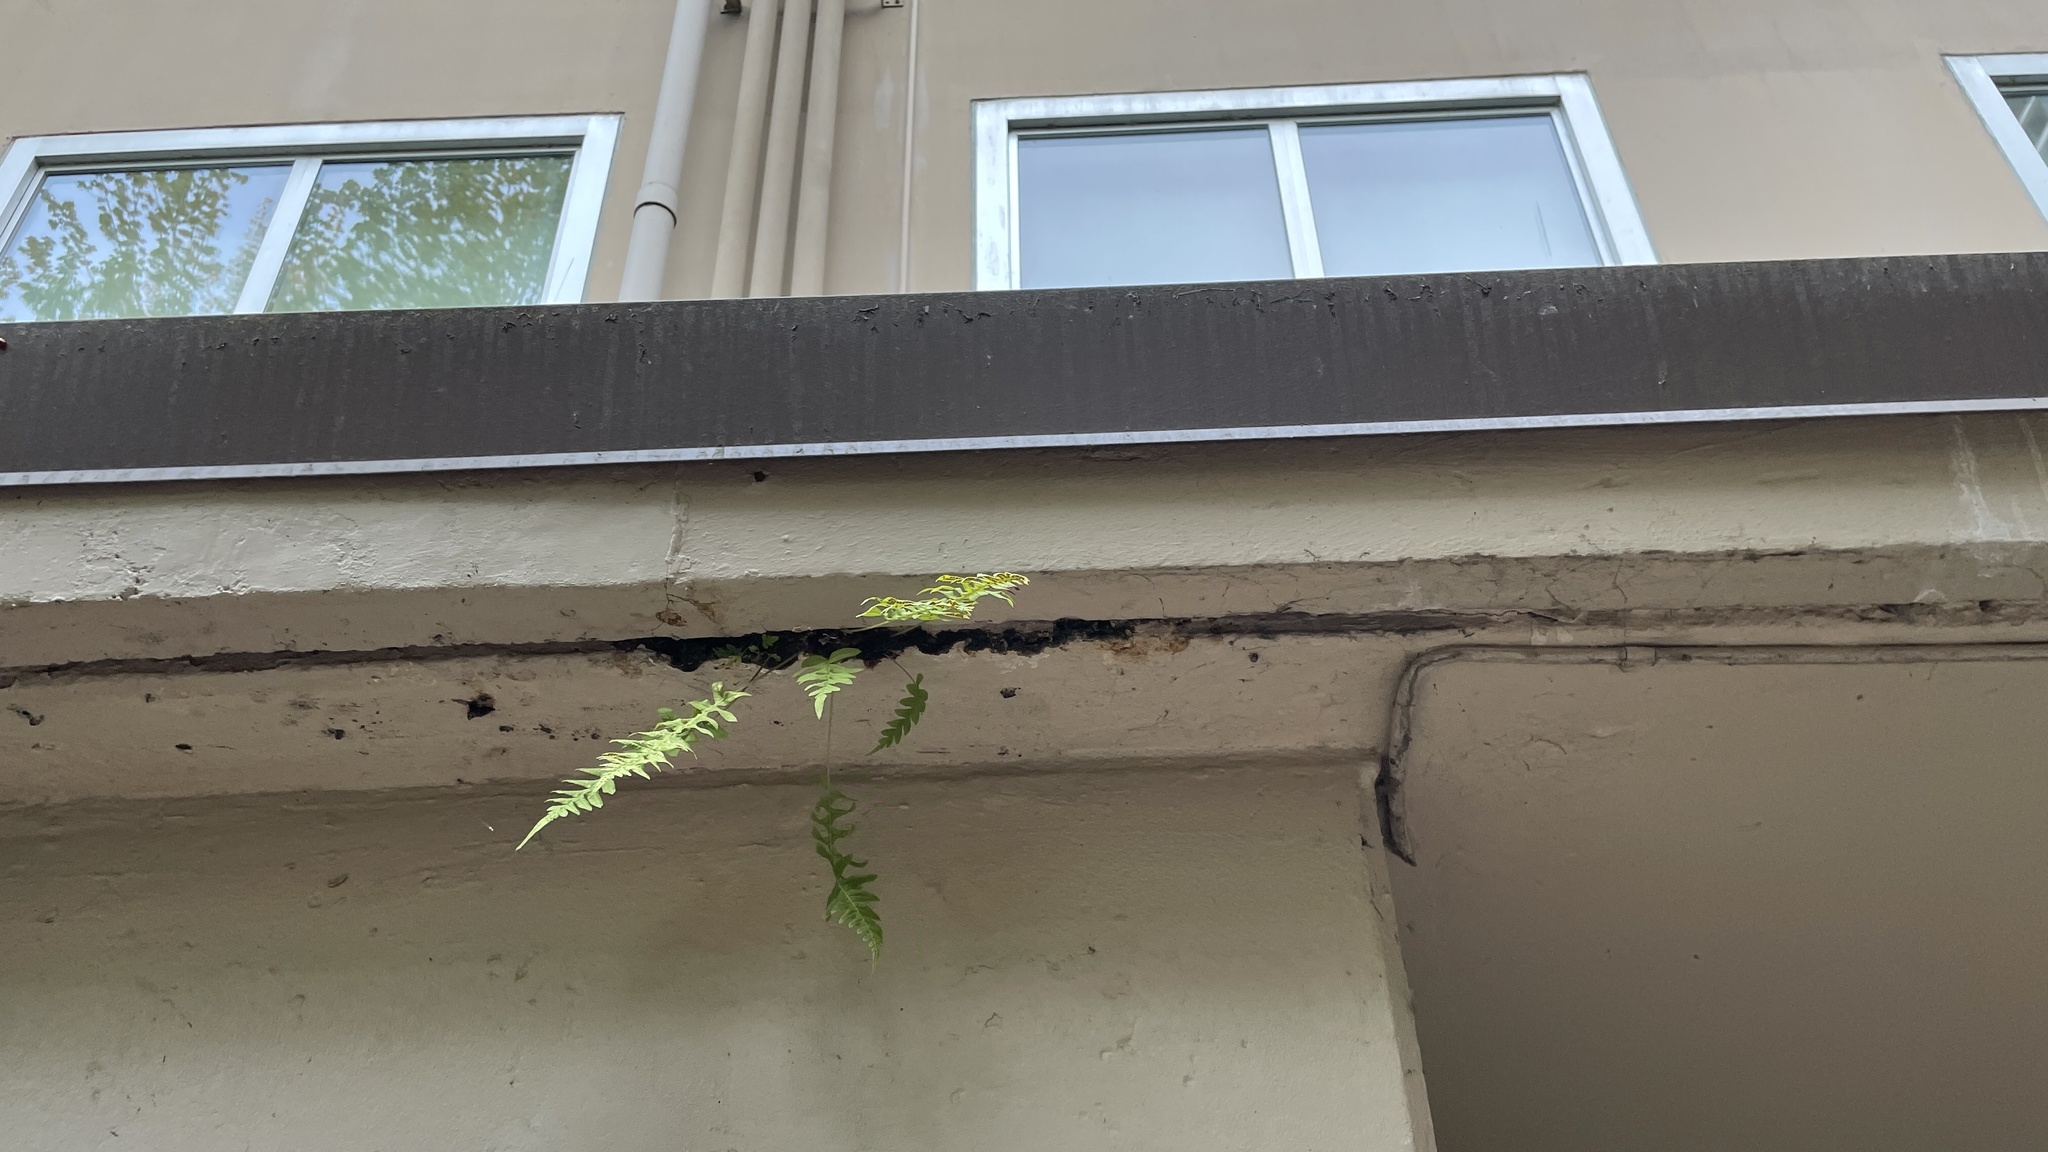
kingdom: Plantae
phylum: Tracheophyta
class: Polypodiopsida
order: Polypodiales
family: Polypodiaceae
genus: Polypodium
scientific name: Polypodium glycyrrhiza
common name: Licorice fern
